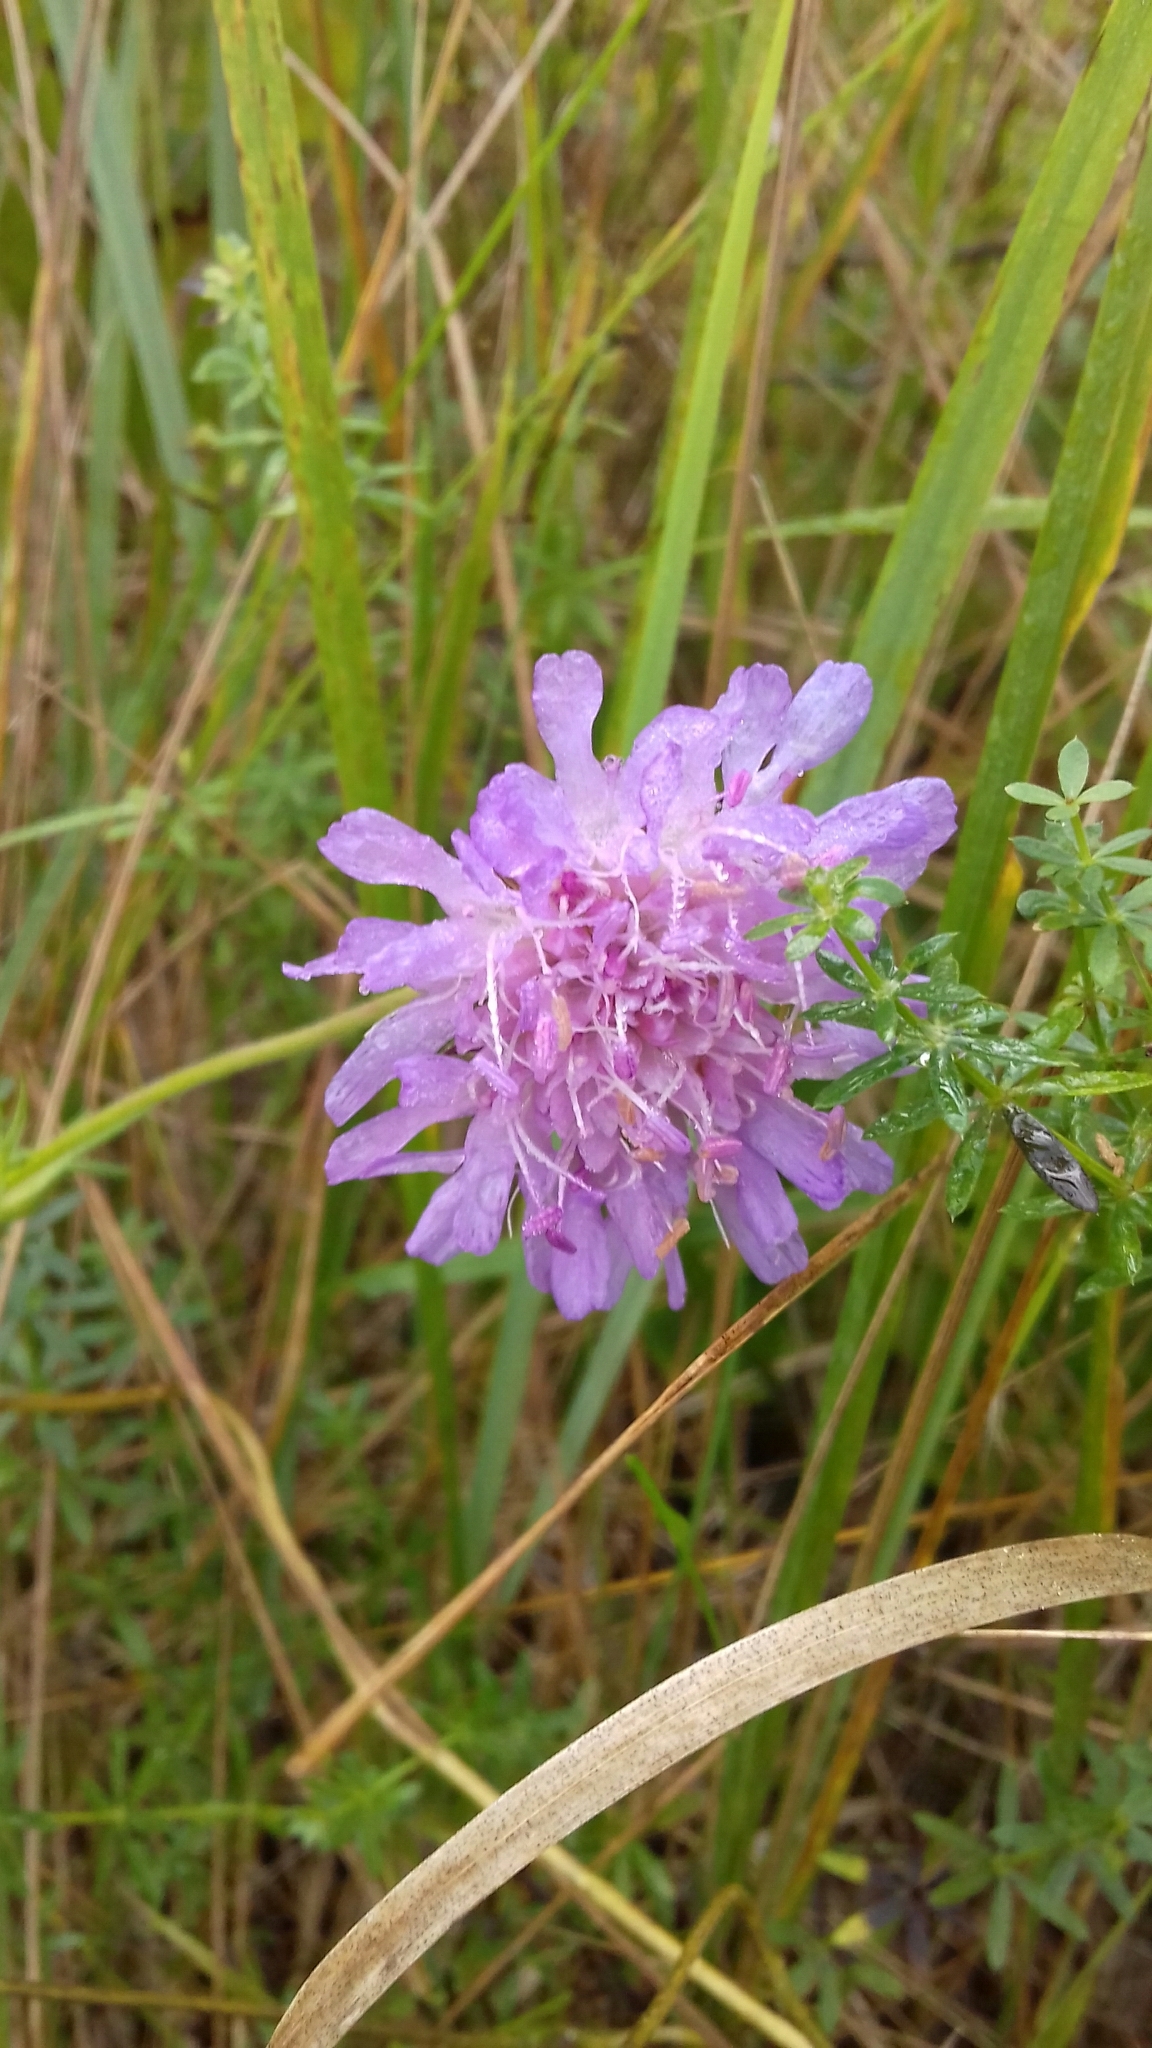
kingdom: Plantae
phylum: Tracheophyta
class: Magnoliopsida
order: Dipsacales
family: Caprifoliaceae
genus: Knautia
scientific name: Knautia arvensis
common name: Field scabiosa
